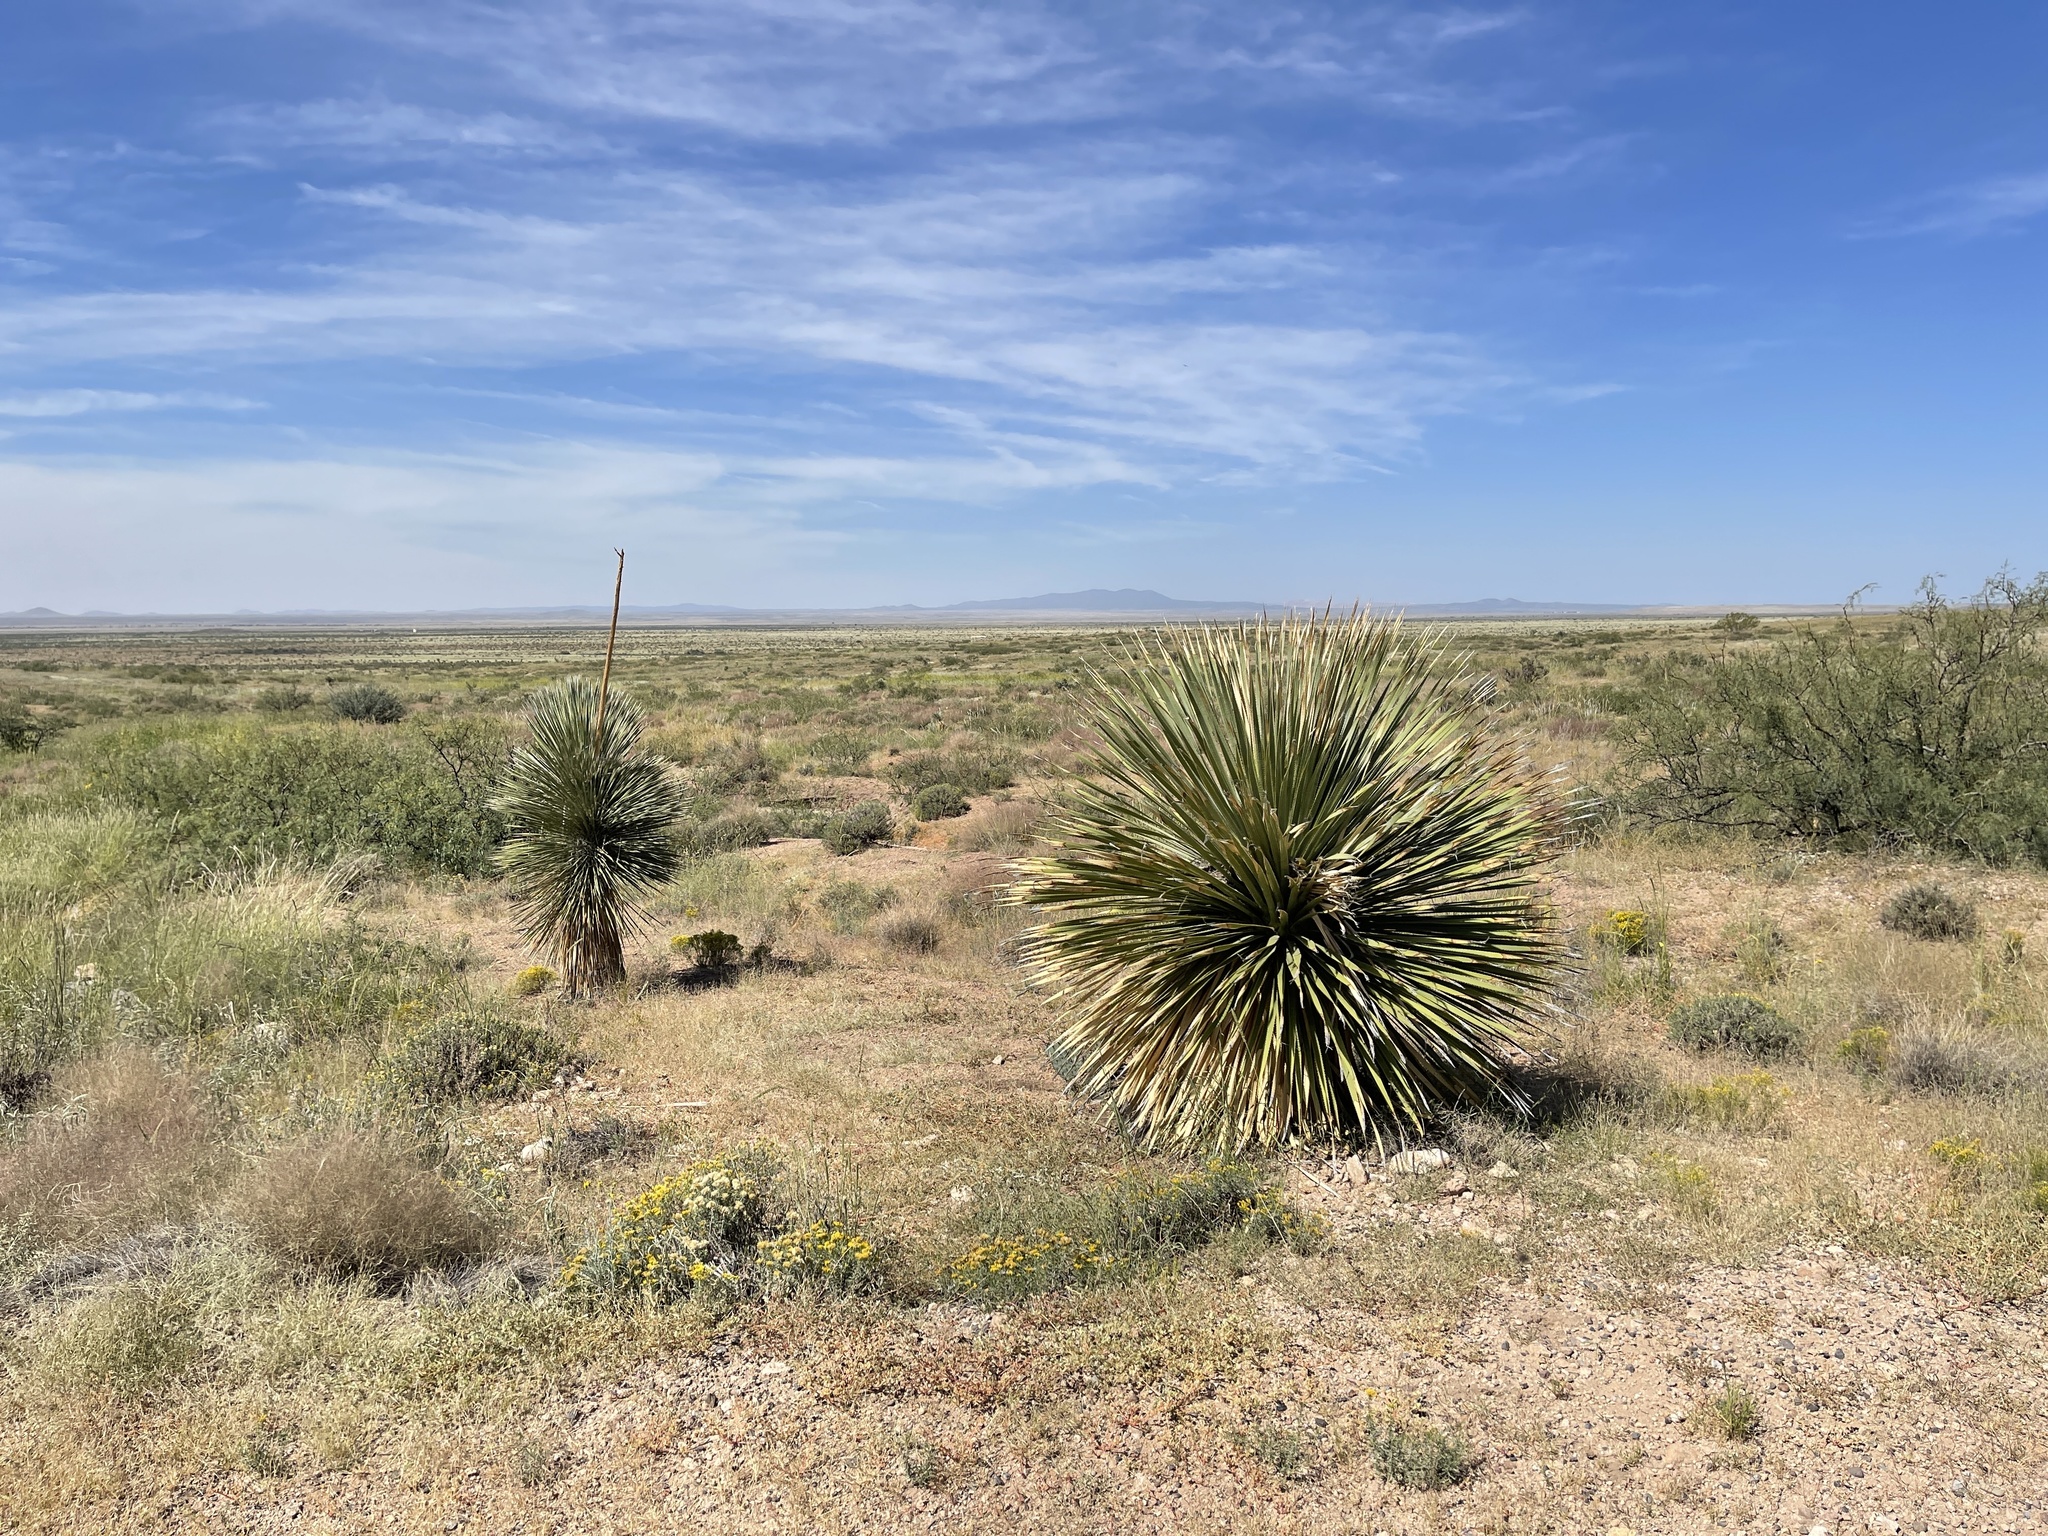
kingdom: Plantae
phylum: Tracheophyta
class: Liliopsida
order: Asparagales
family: Asparagaceae
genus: Dasylirion
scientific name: Dasylirion wheeleri
